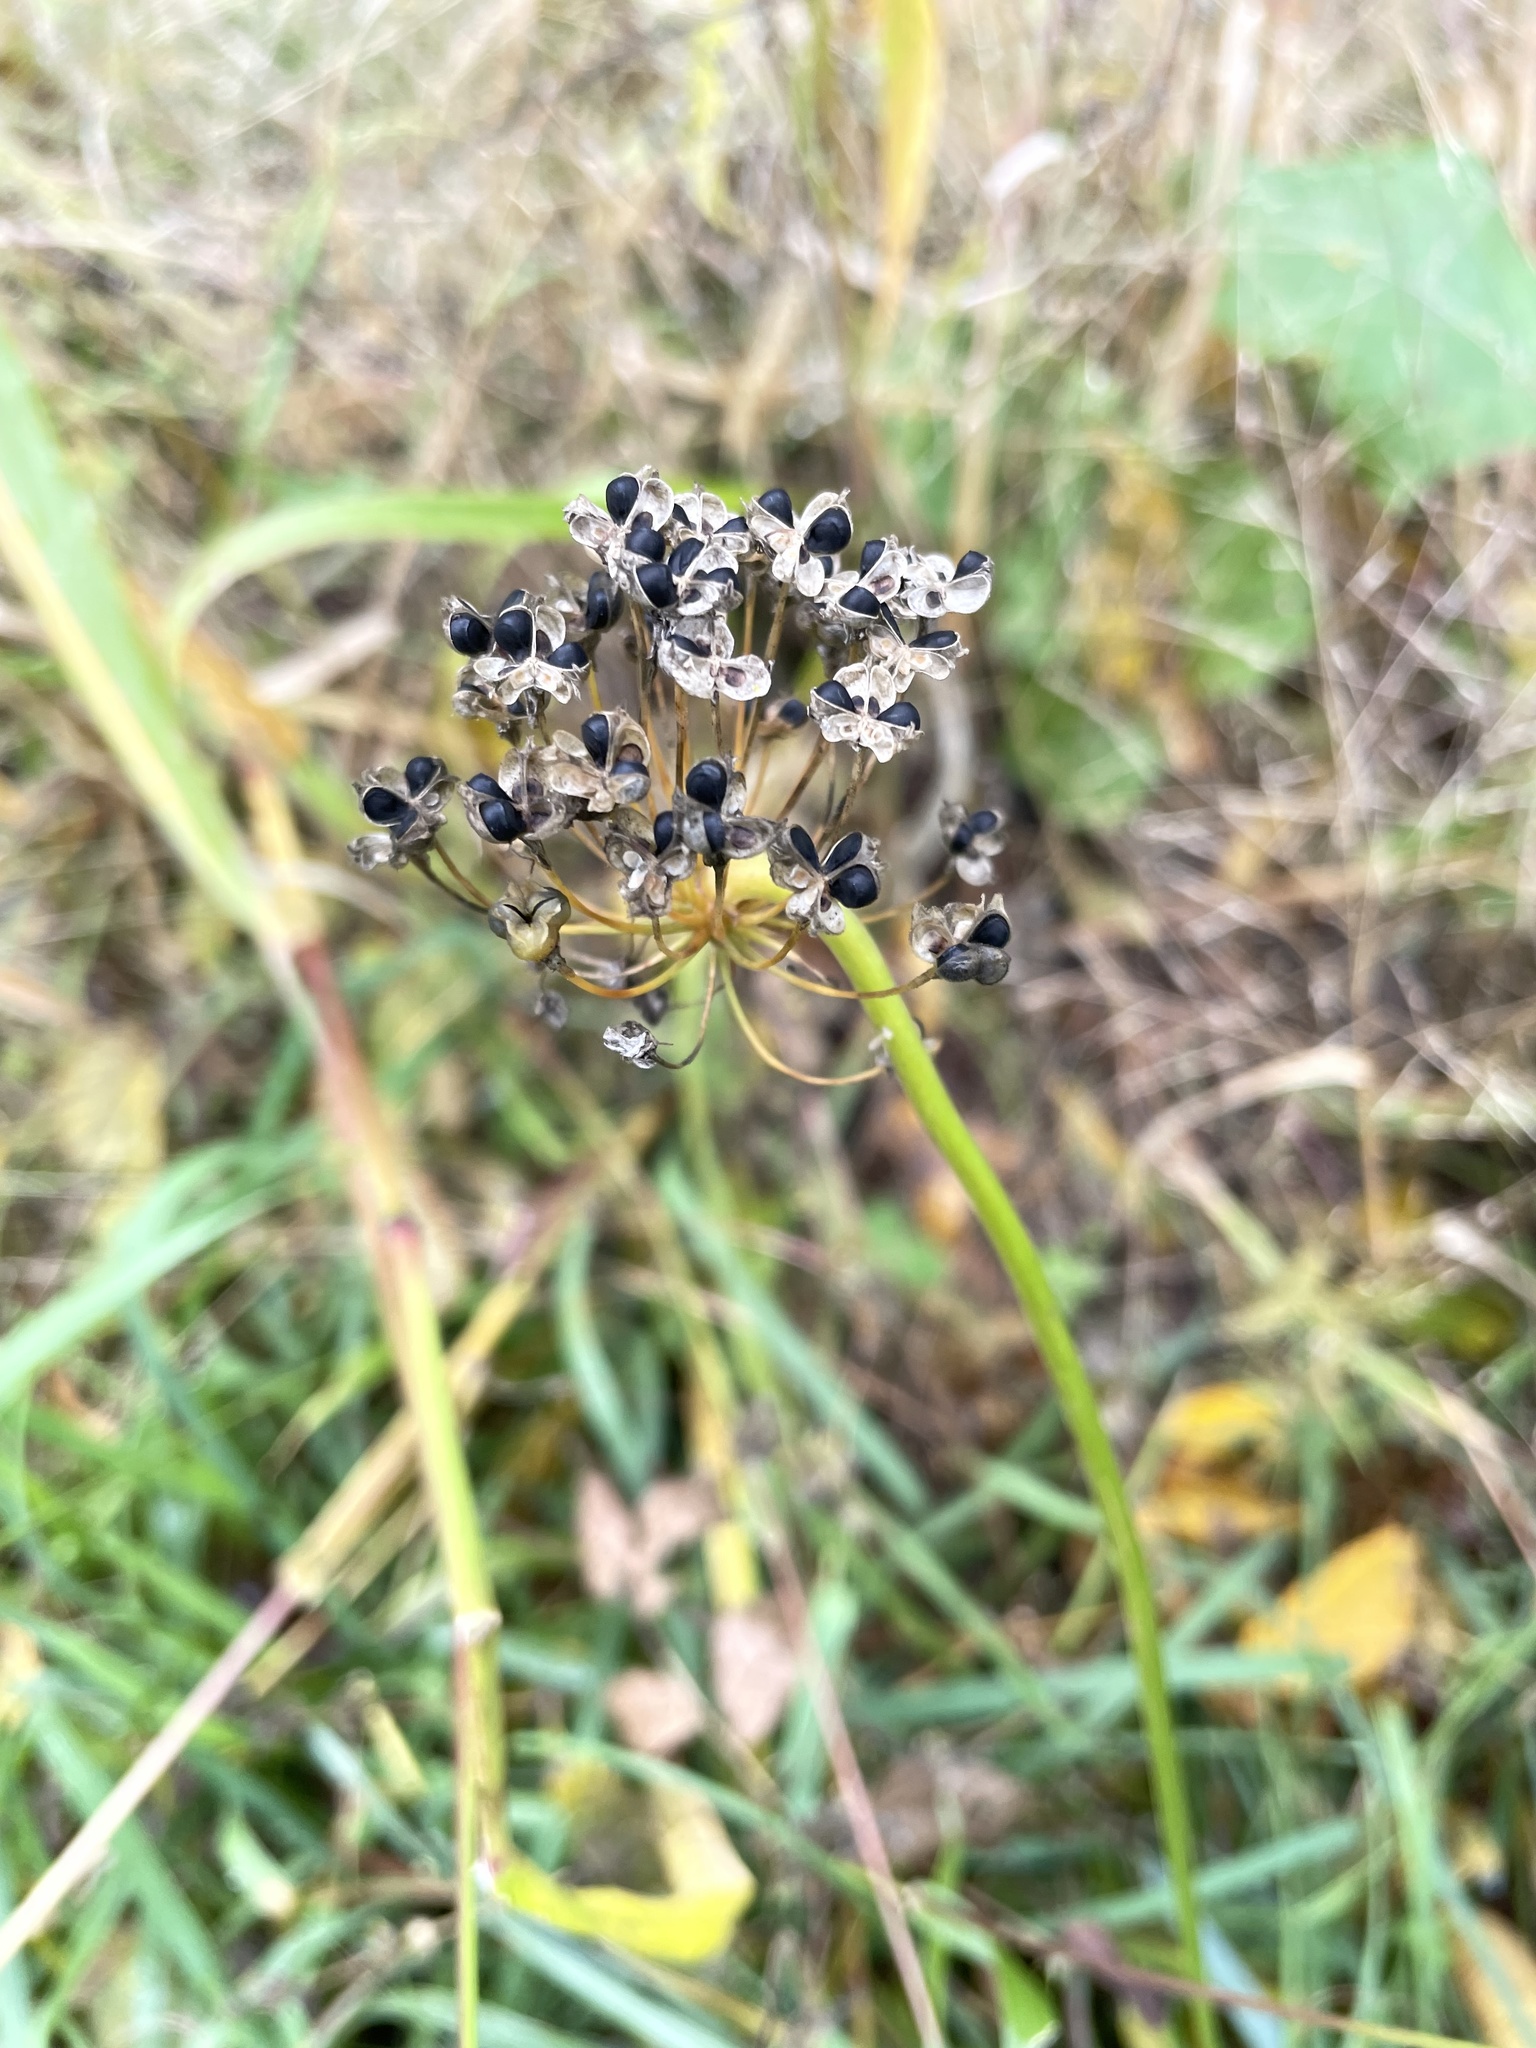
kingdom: Plantae
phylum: Tracheophyta
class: Liliopsida
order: Asparagales
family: Amaryllidaceae
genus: Allium
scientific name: Allium cernuum
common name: Nodding onion
